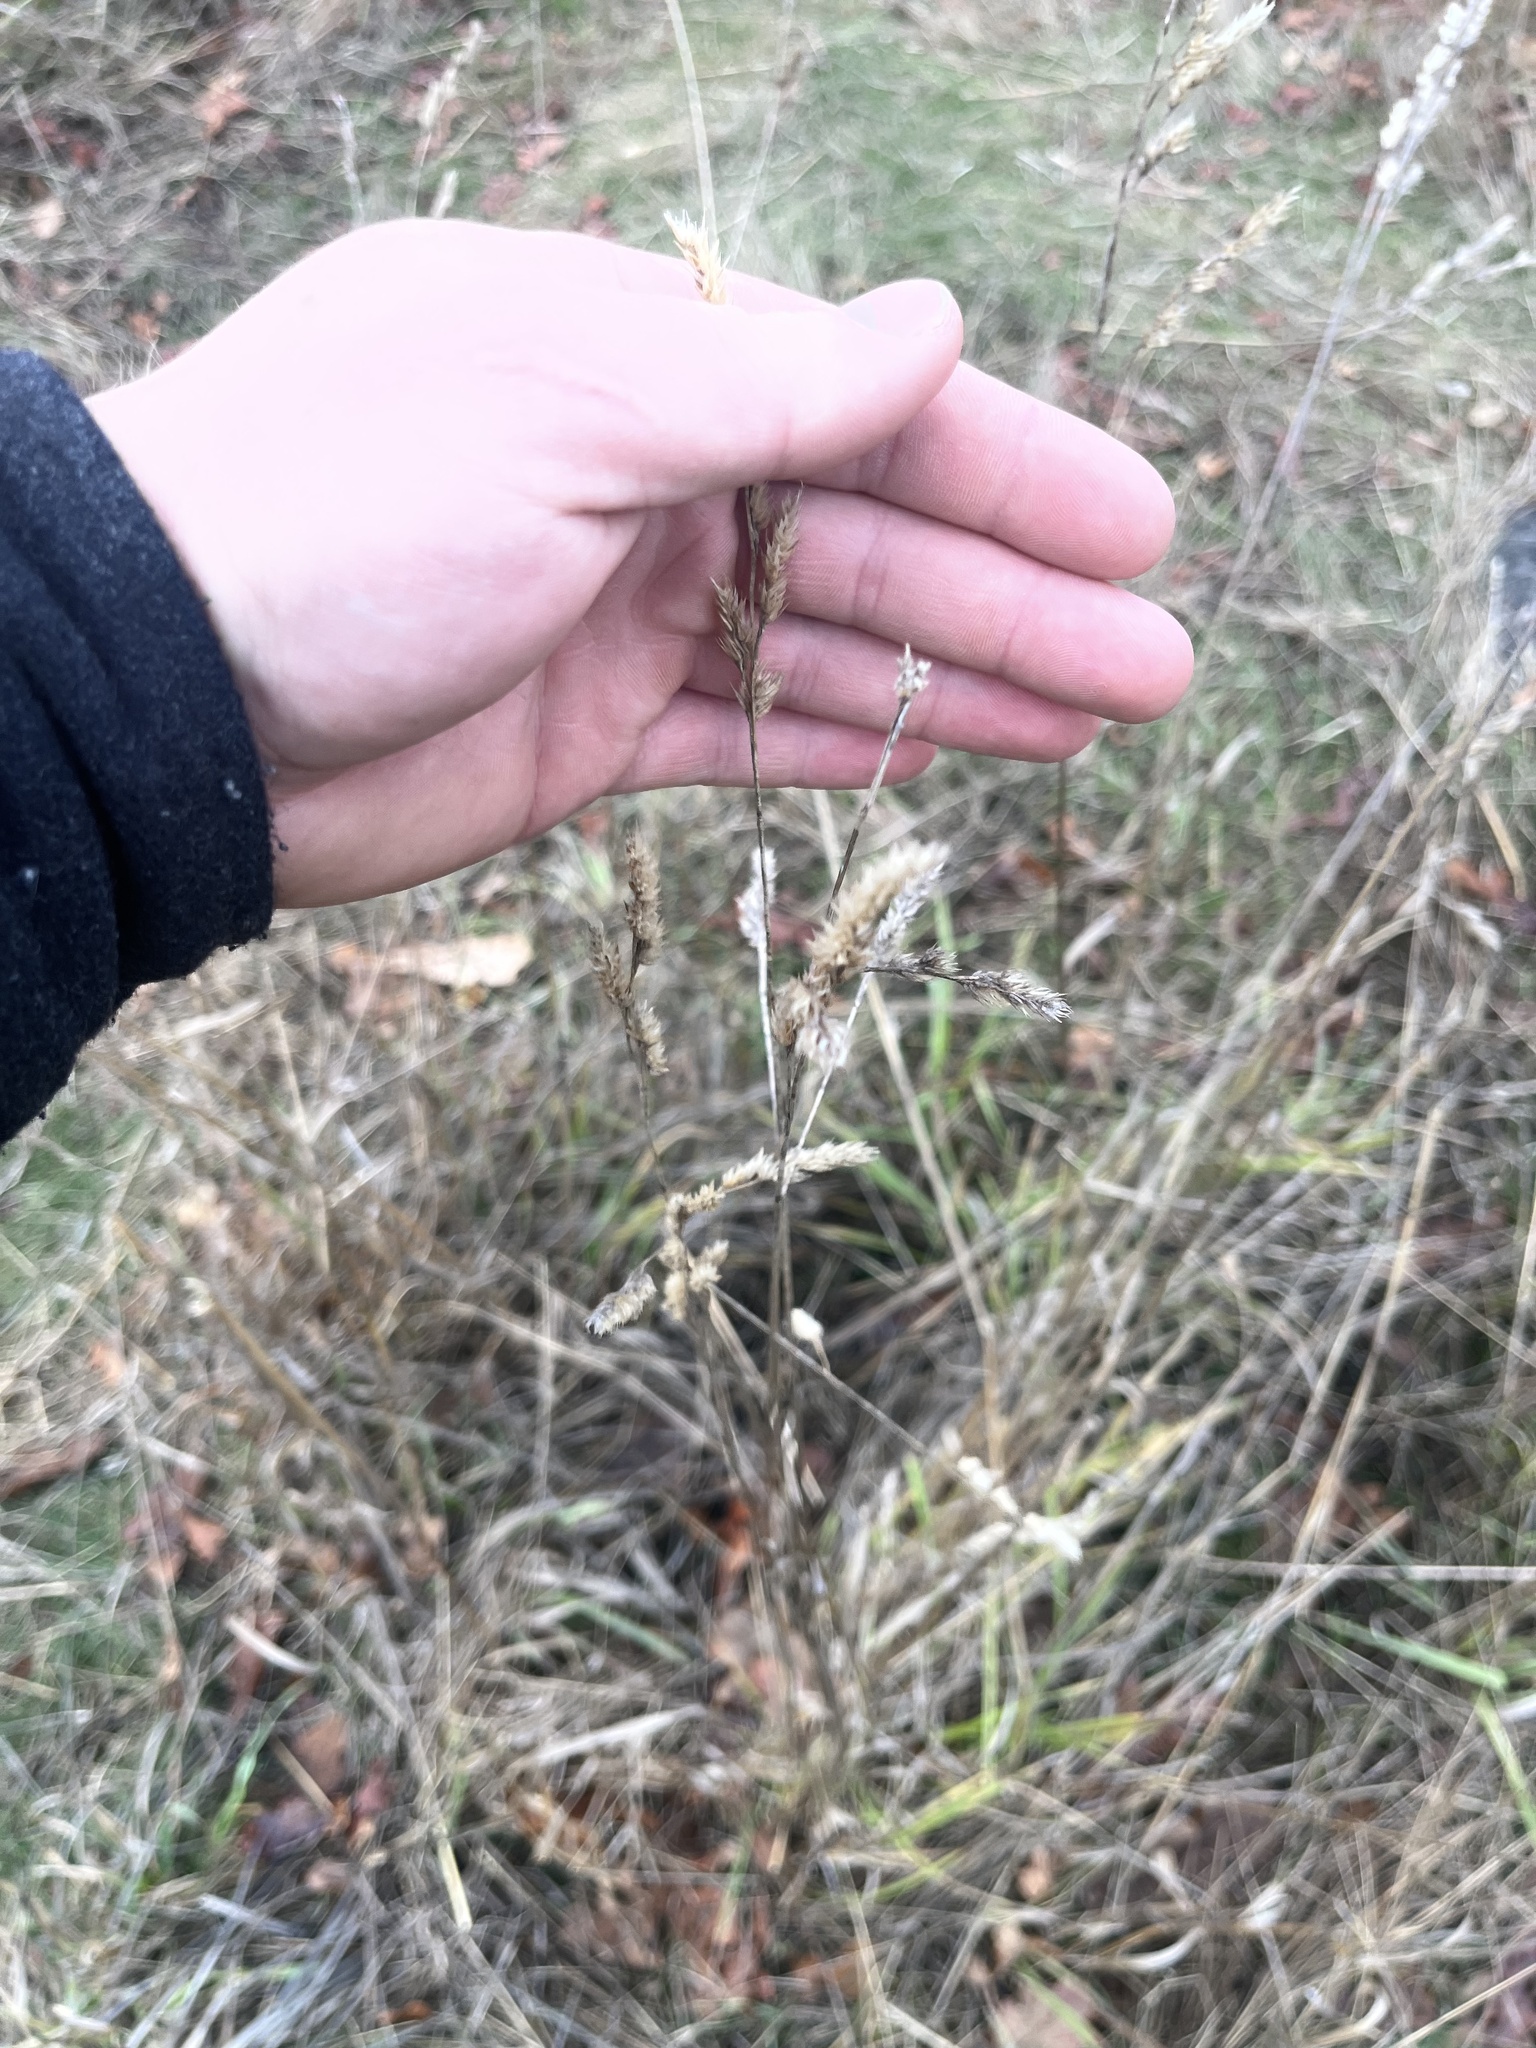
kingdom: Plantae
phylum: Tracheophyta
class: Liliopsida
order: Poales
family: Poaceae
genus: Dactylis
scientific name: Dactylis glomerata
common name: Orchardgrass
